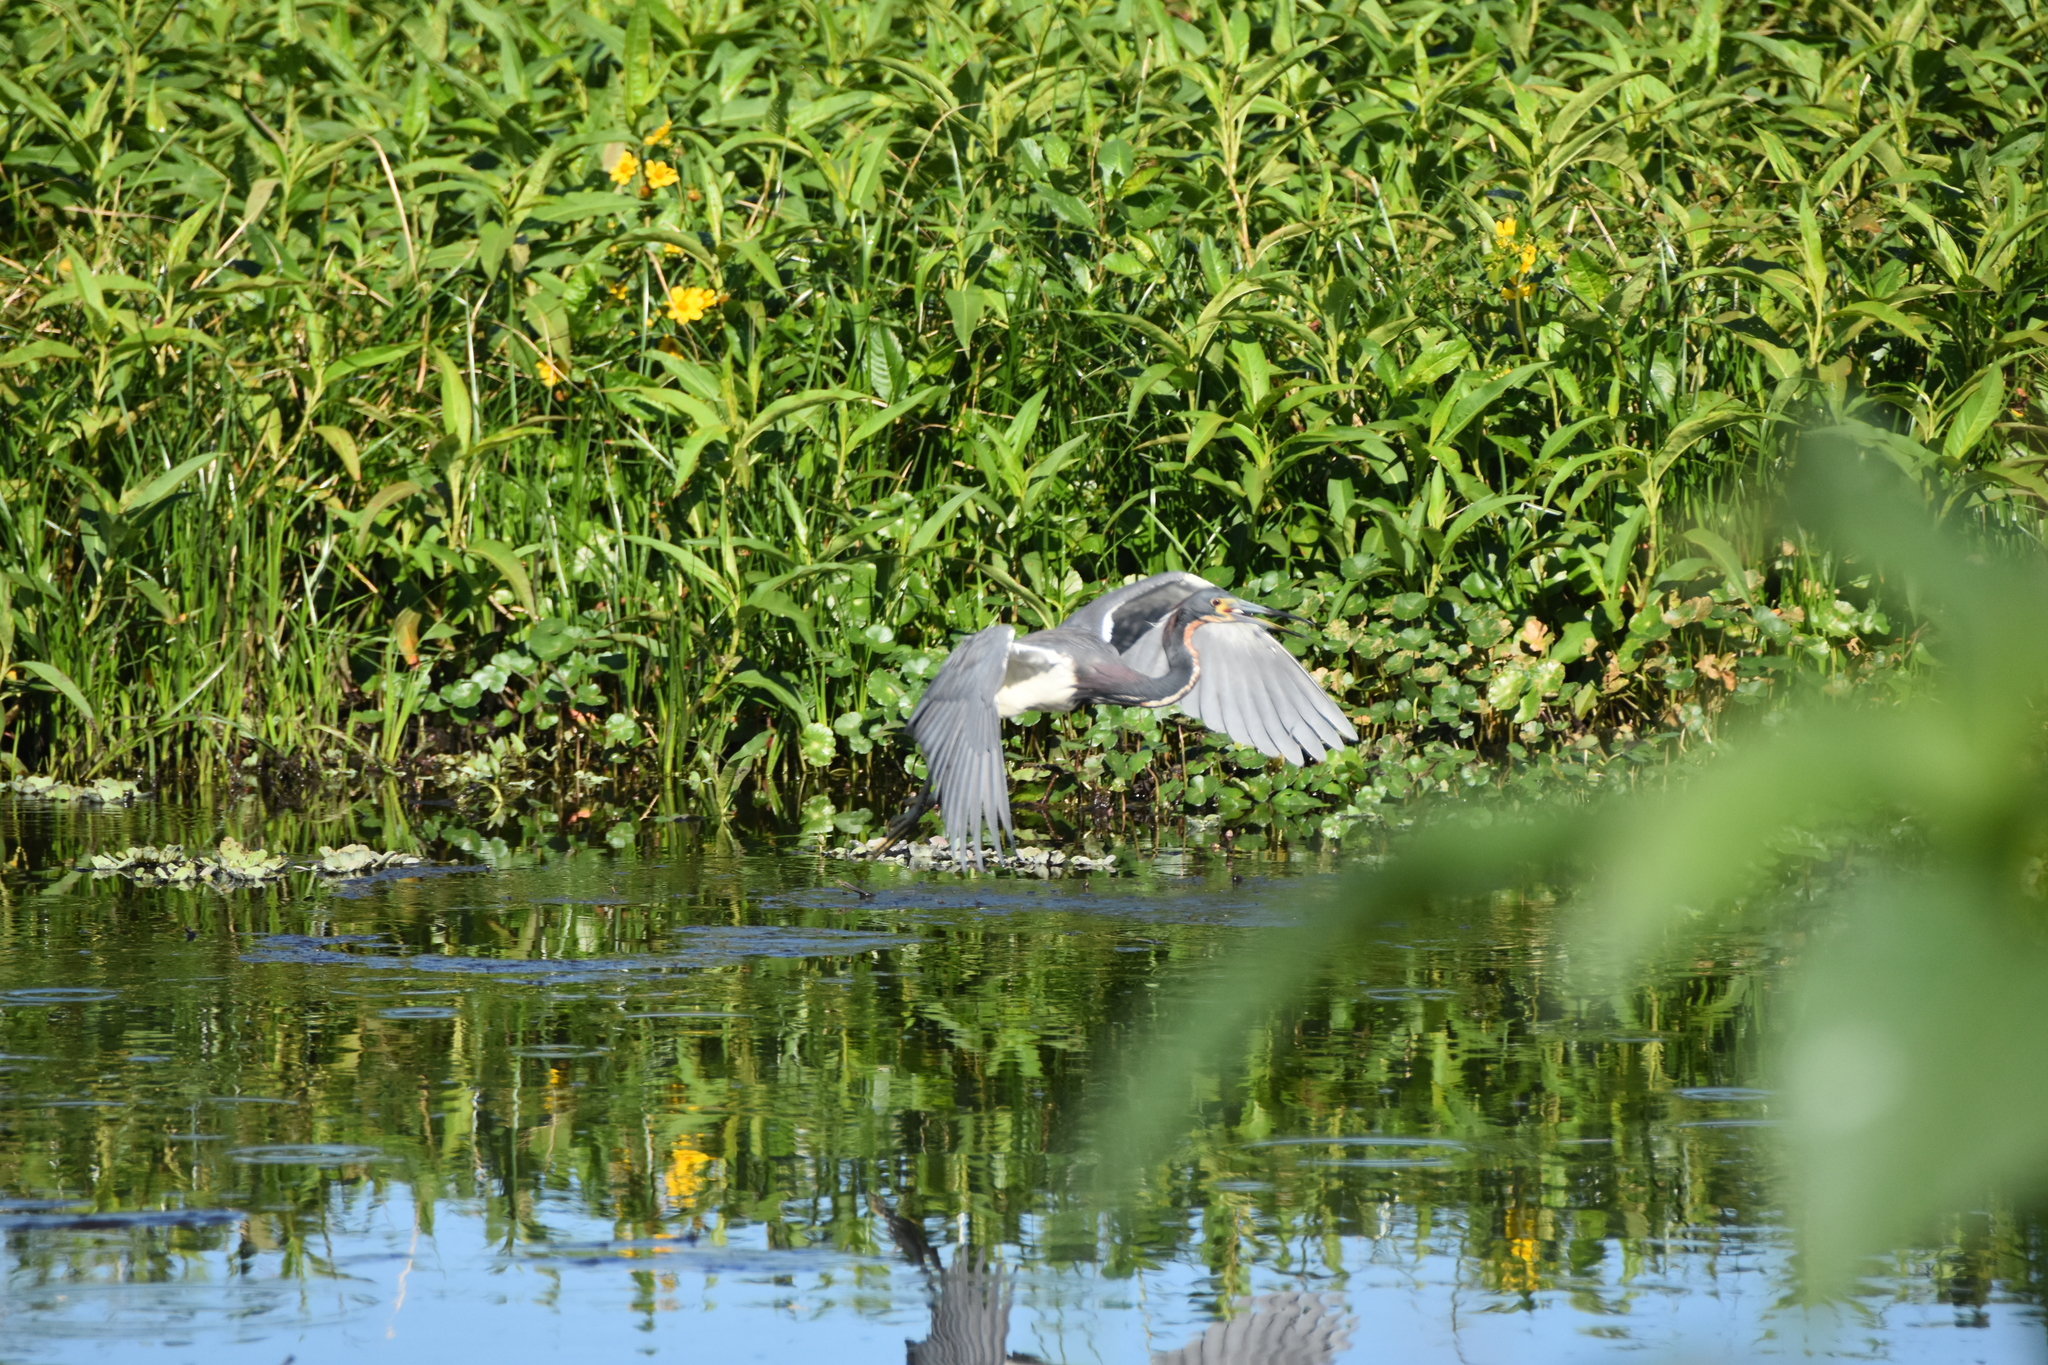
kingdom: Animalia
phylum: Chordata
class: Aves
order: Pelecaniformes
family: Ardeidae
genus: Egretta
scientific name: Egretta tricolor
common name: Tricolored heron
